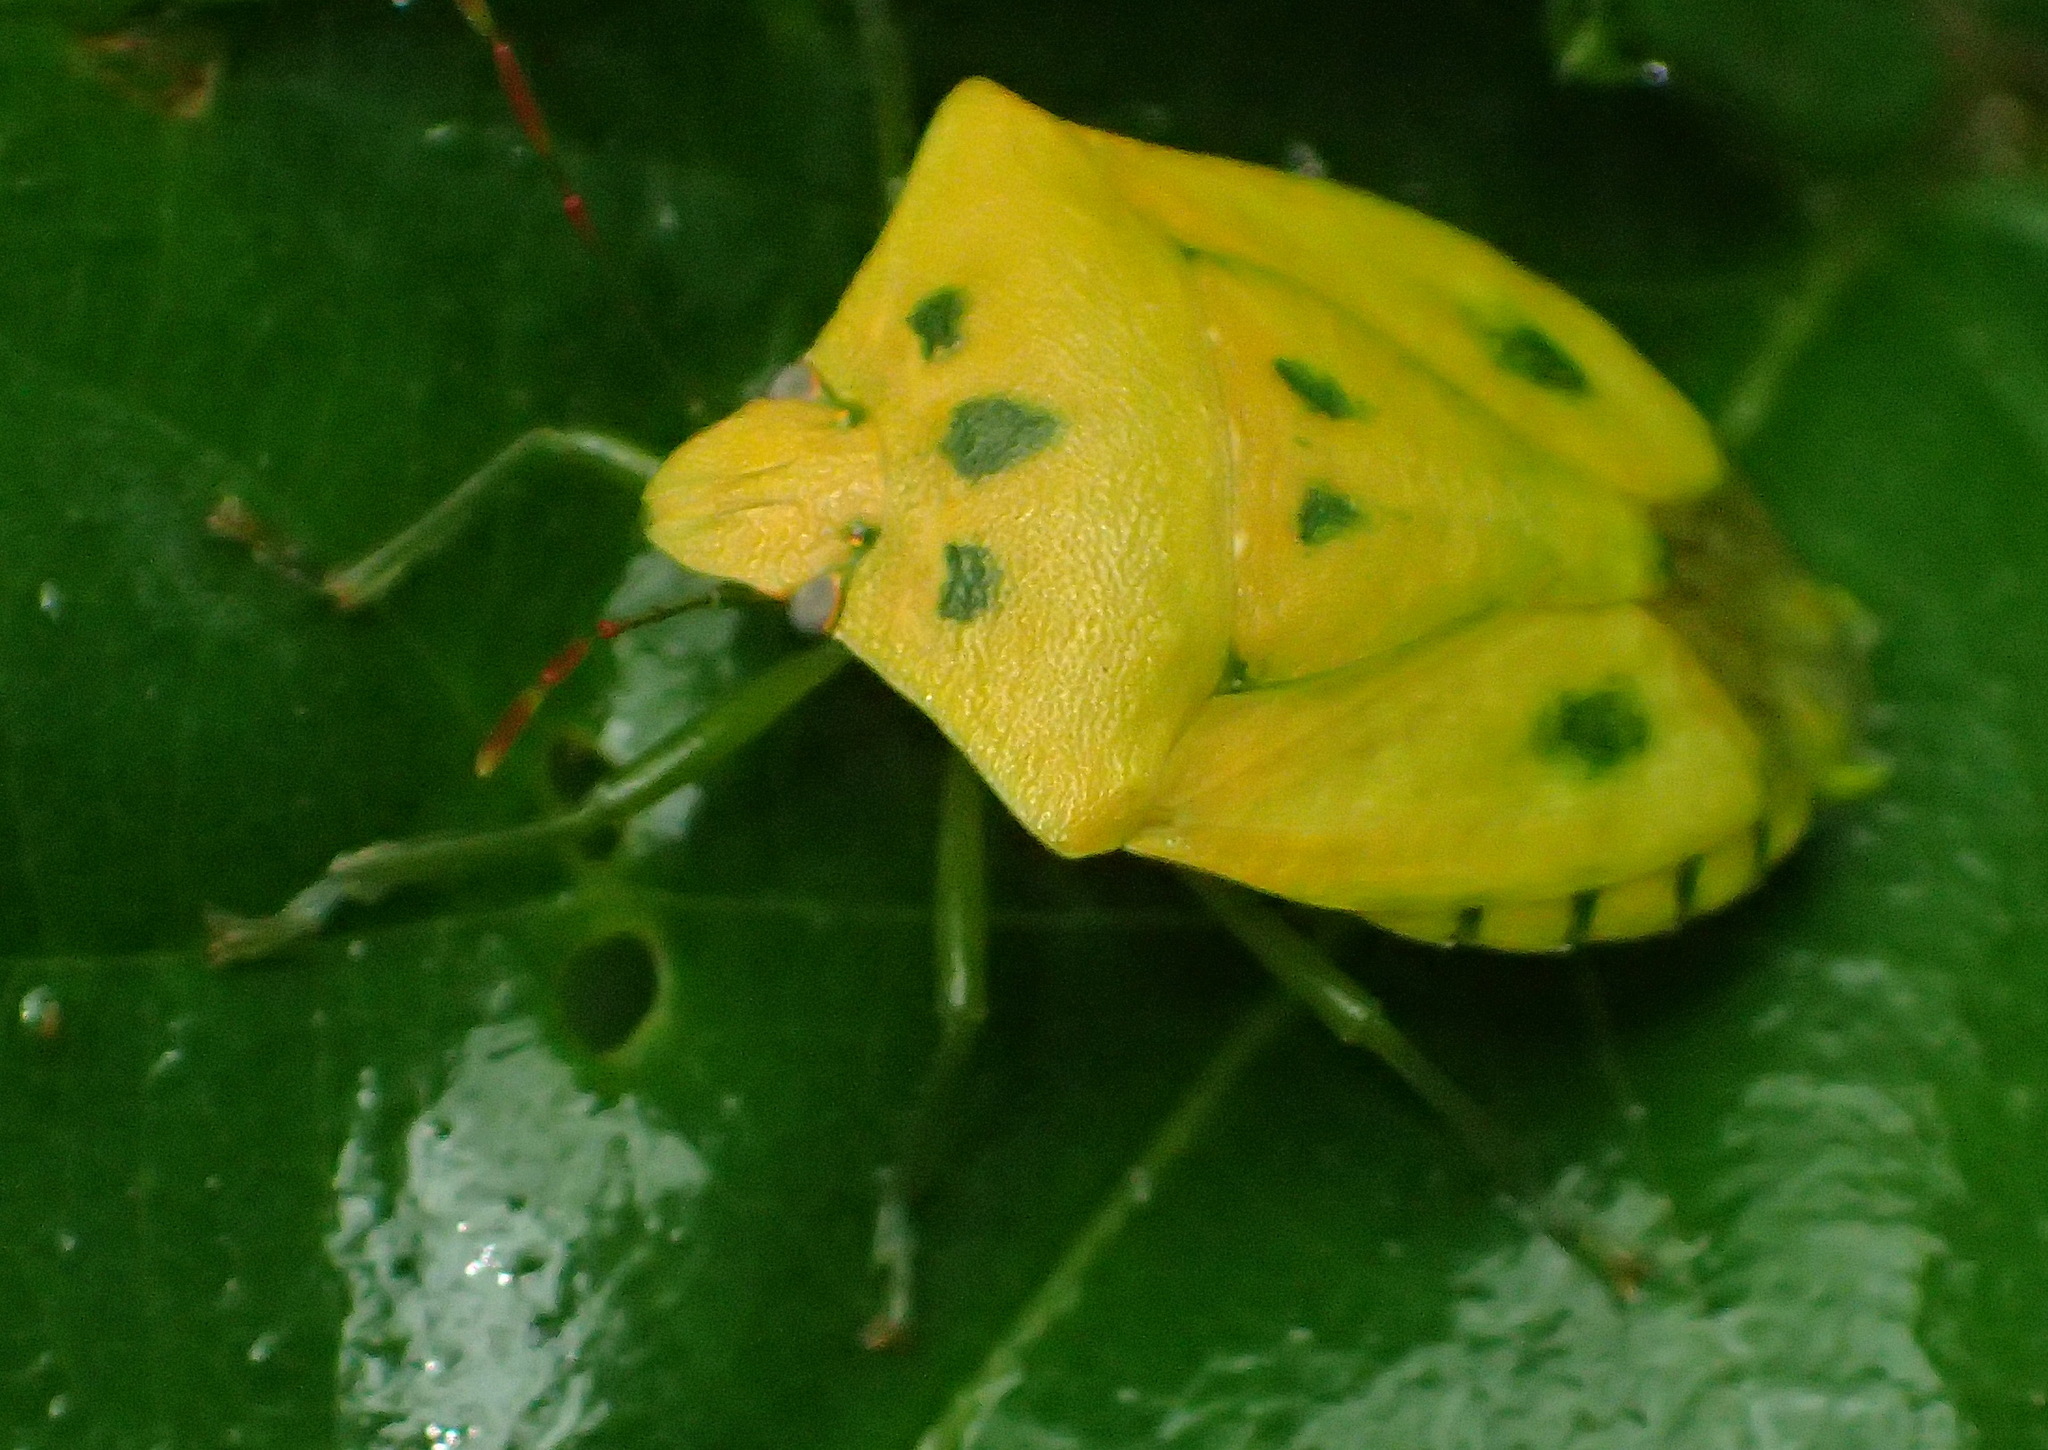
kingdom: Animalia
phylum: Arthropoda
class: Insecta
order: Hemiptera
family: Pentatomidae
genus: Nezara
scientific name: Nezara viridula
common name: Southern green stink bug
